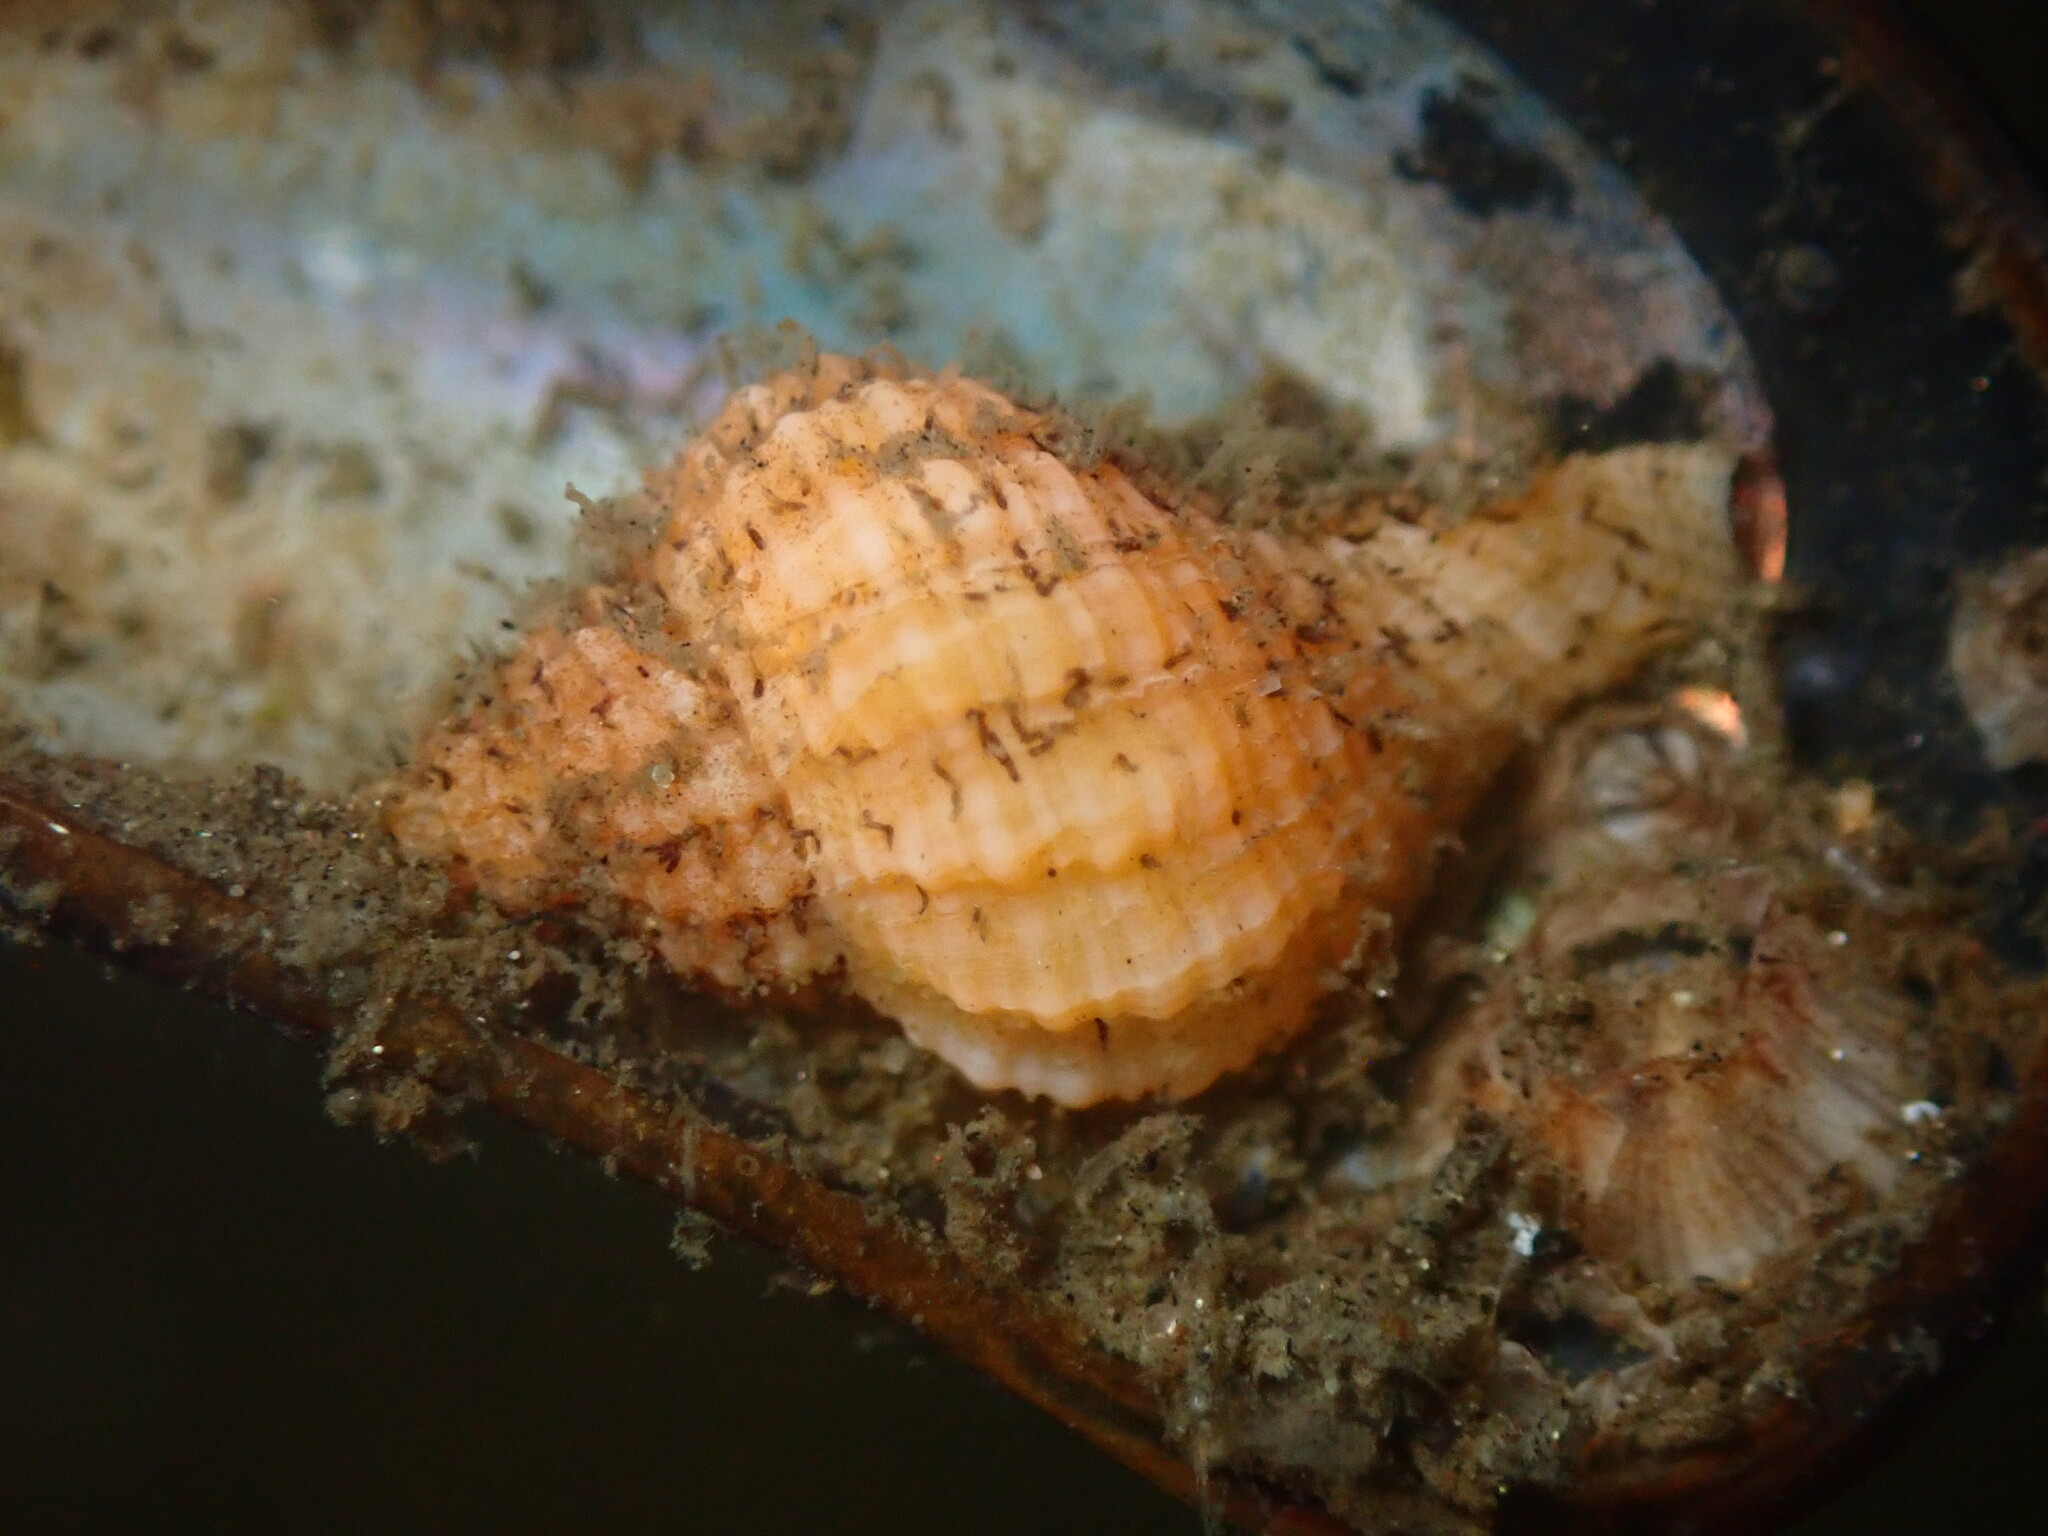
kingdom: Animalia
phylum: Mollusca
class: Gastropoda
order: Neogastropoda
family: Muricidae
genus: Urosalpinx
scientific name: Urosalpinx cinerea
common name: American sting winkle
